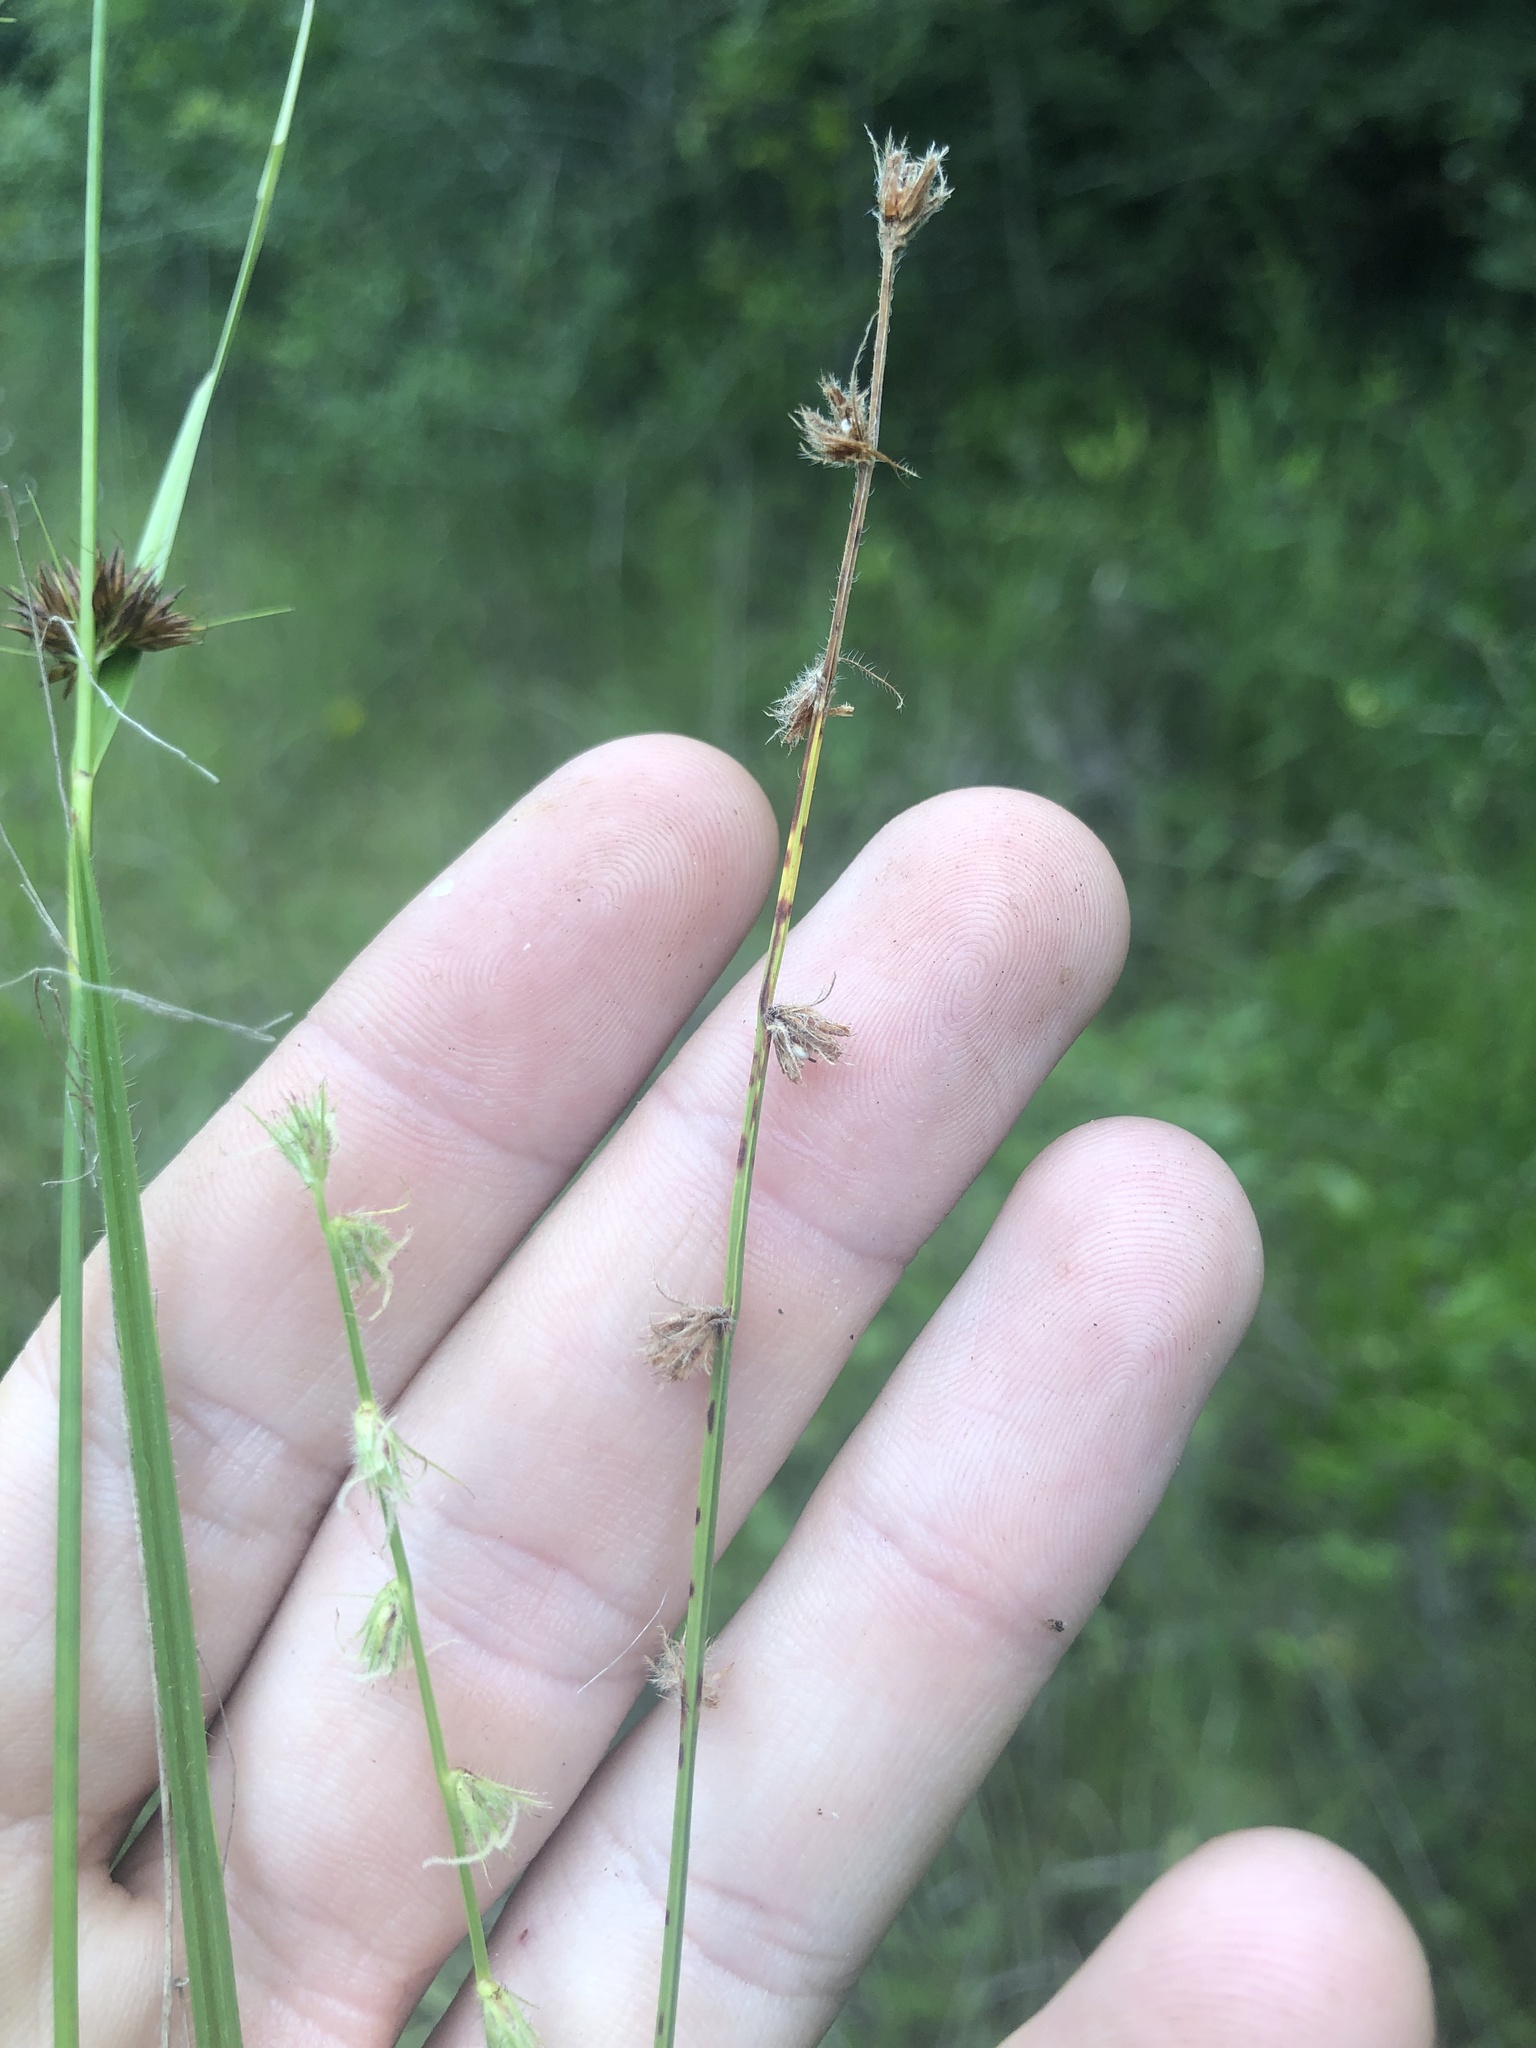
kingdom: Plantae
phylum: Tracheophyta
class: Liliopsida
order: Poales
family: Cyperaceae
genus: Scleria
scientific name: Scleria distans
